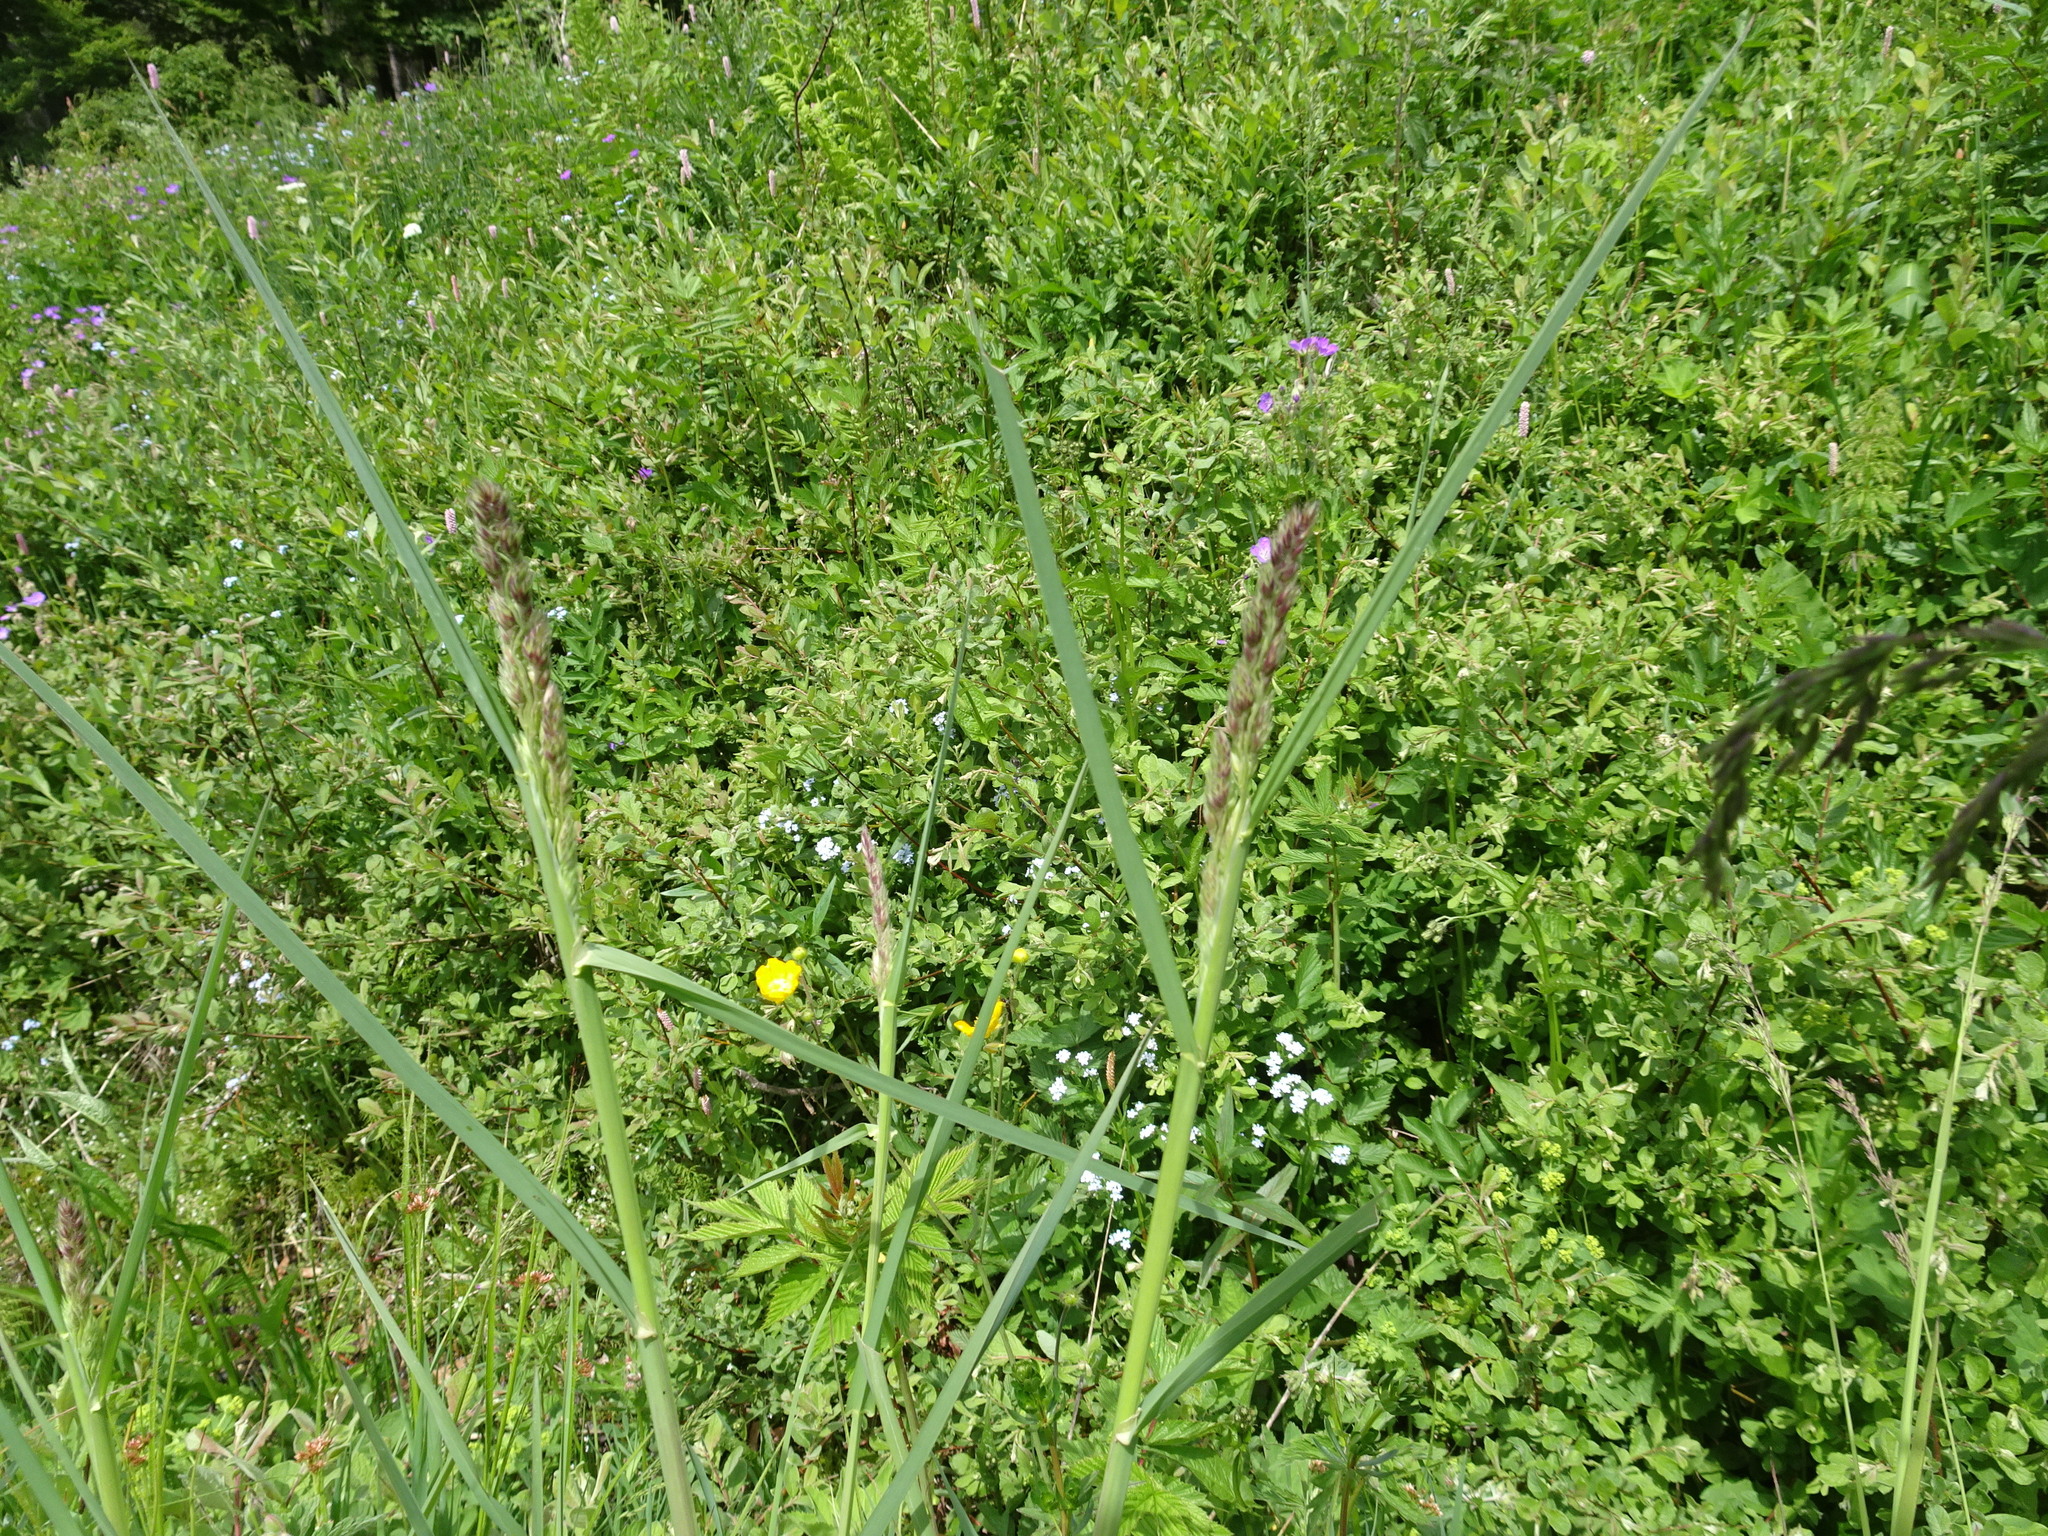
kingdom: Plantae
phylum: Tracheophyta
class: Liliopsida
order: Poales
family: Poaceae
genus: Dactylis
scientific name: Dactylis glomerata
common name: Orchardgrass
